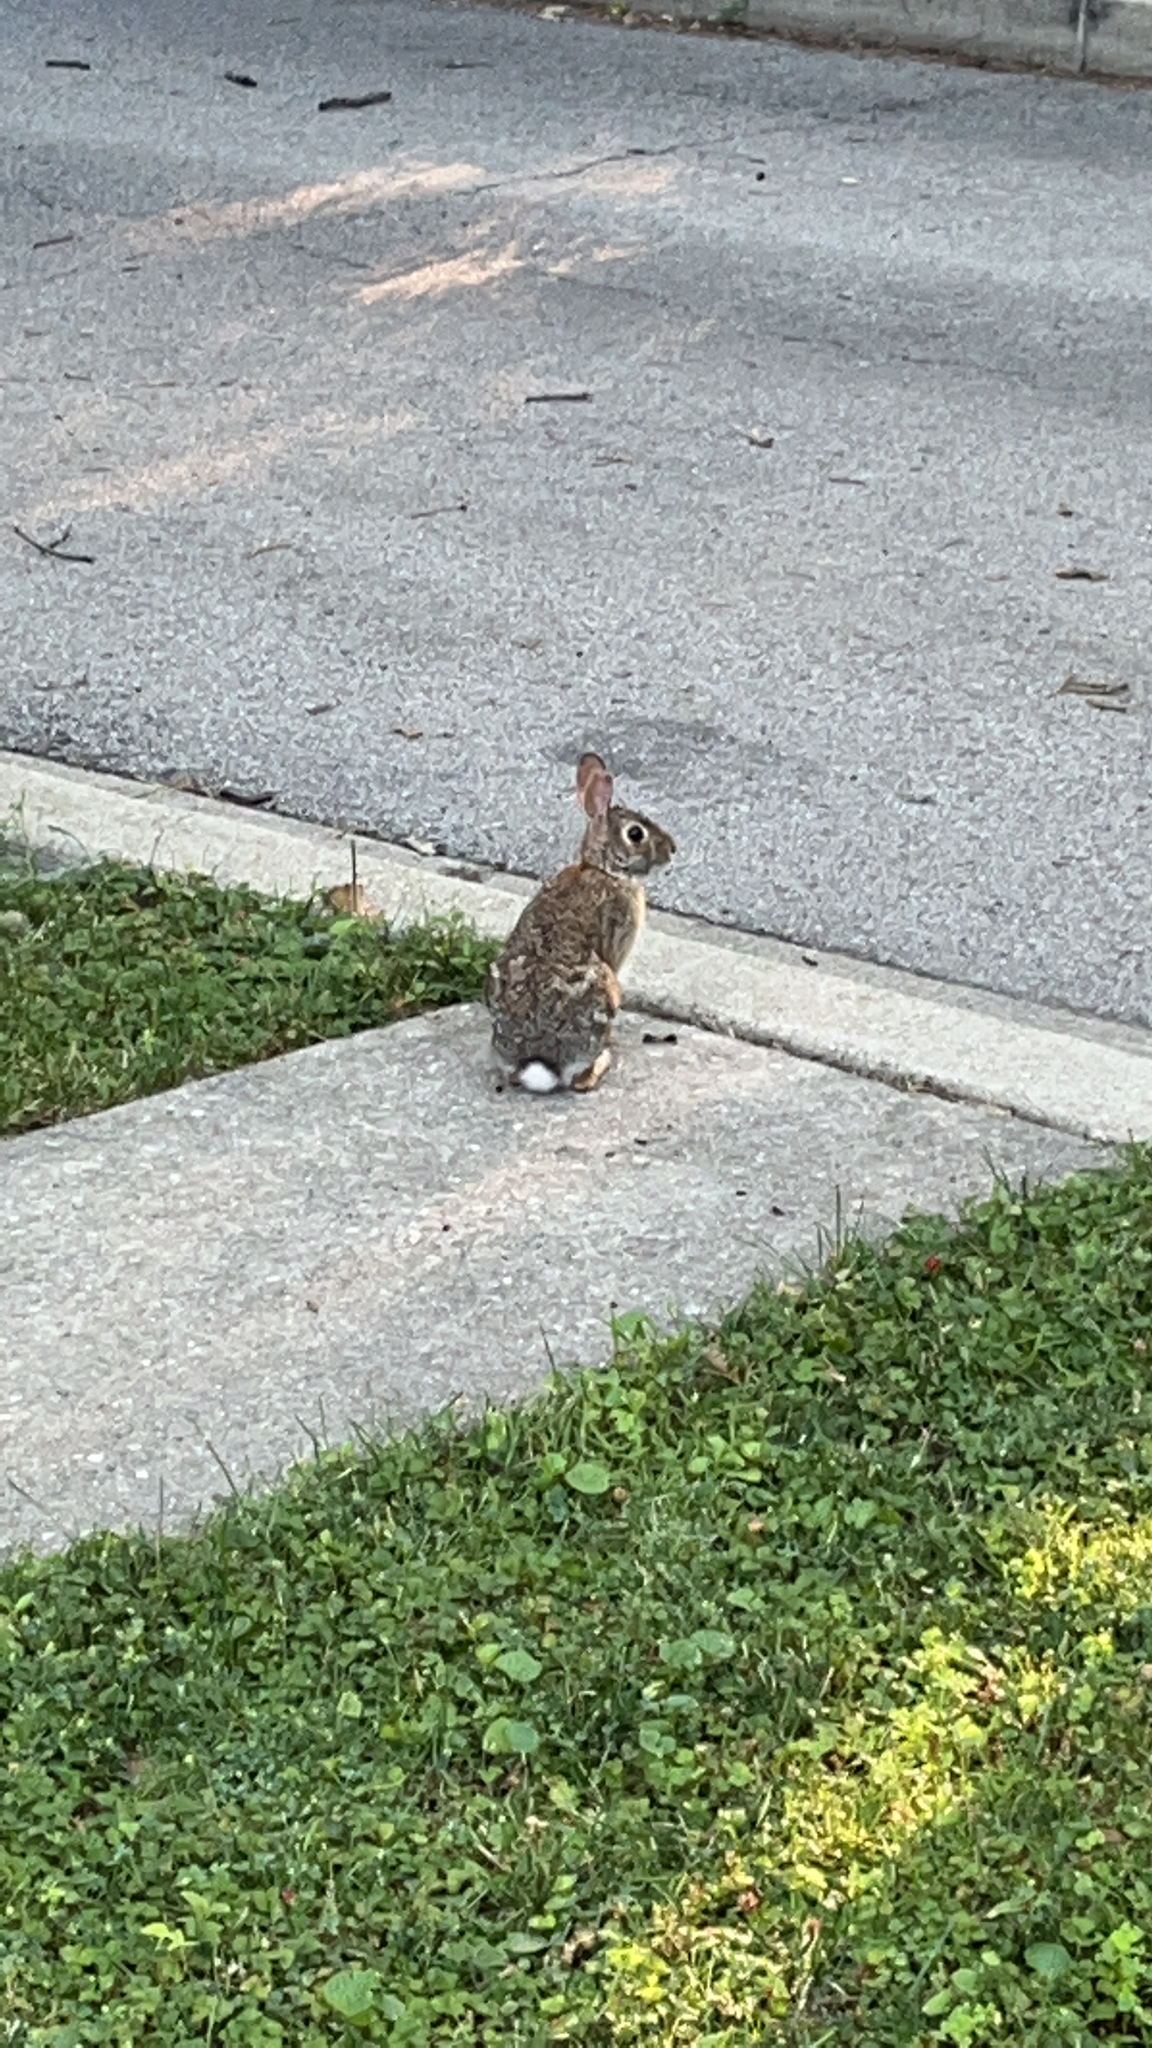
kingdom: Animalia
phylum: Chordata
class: Mammalia
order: Lagomorpha
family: Leporidae
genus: Sylvilagus
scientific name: Sylvilagus floridanus
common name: Eastern cottontail
